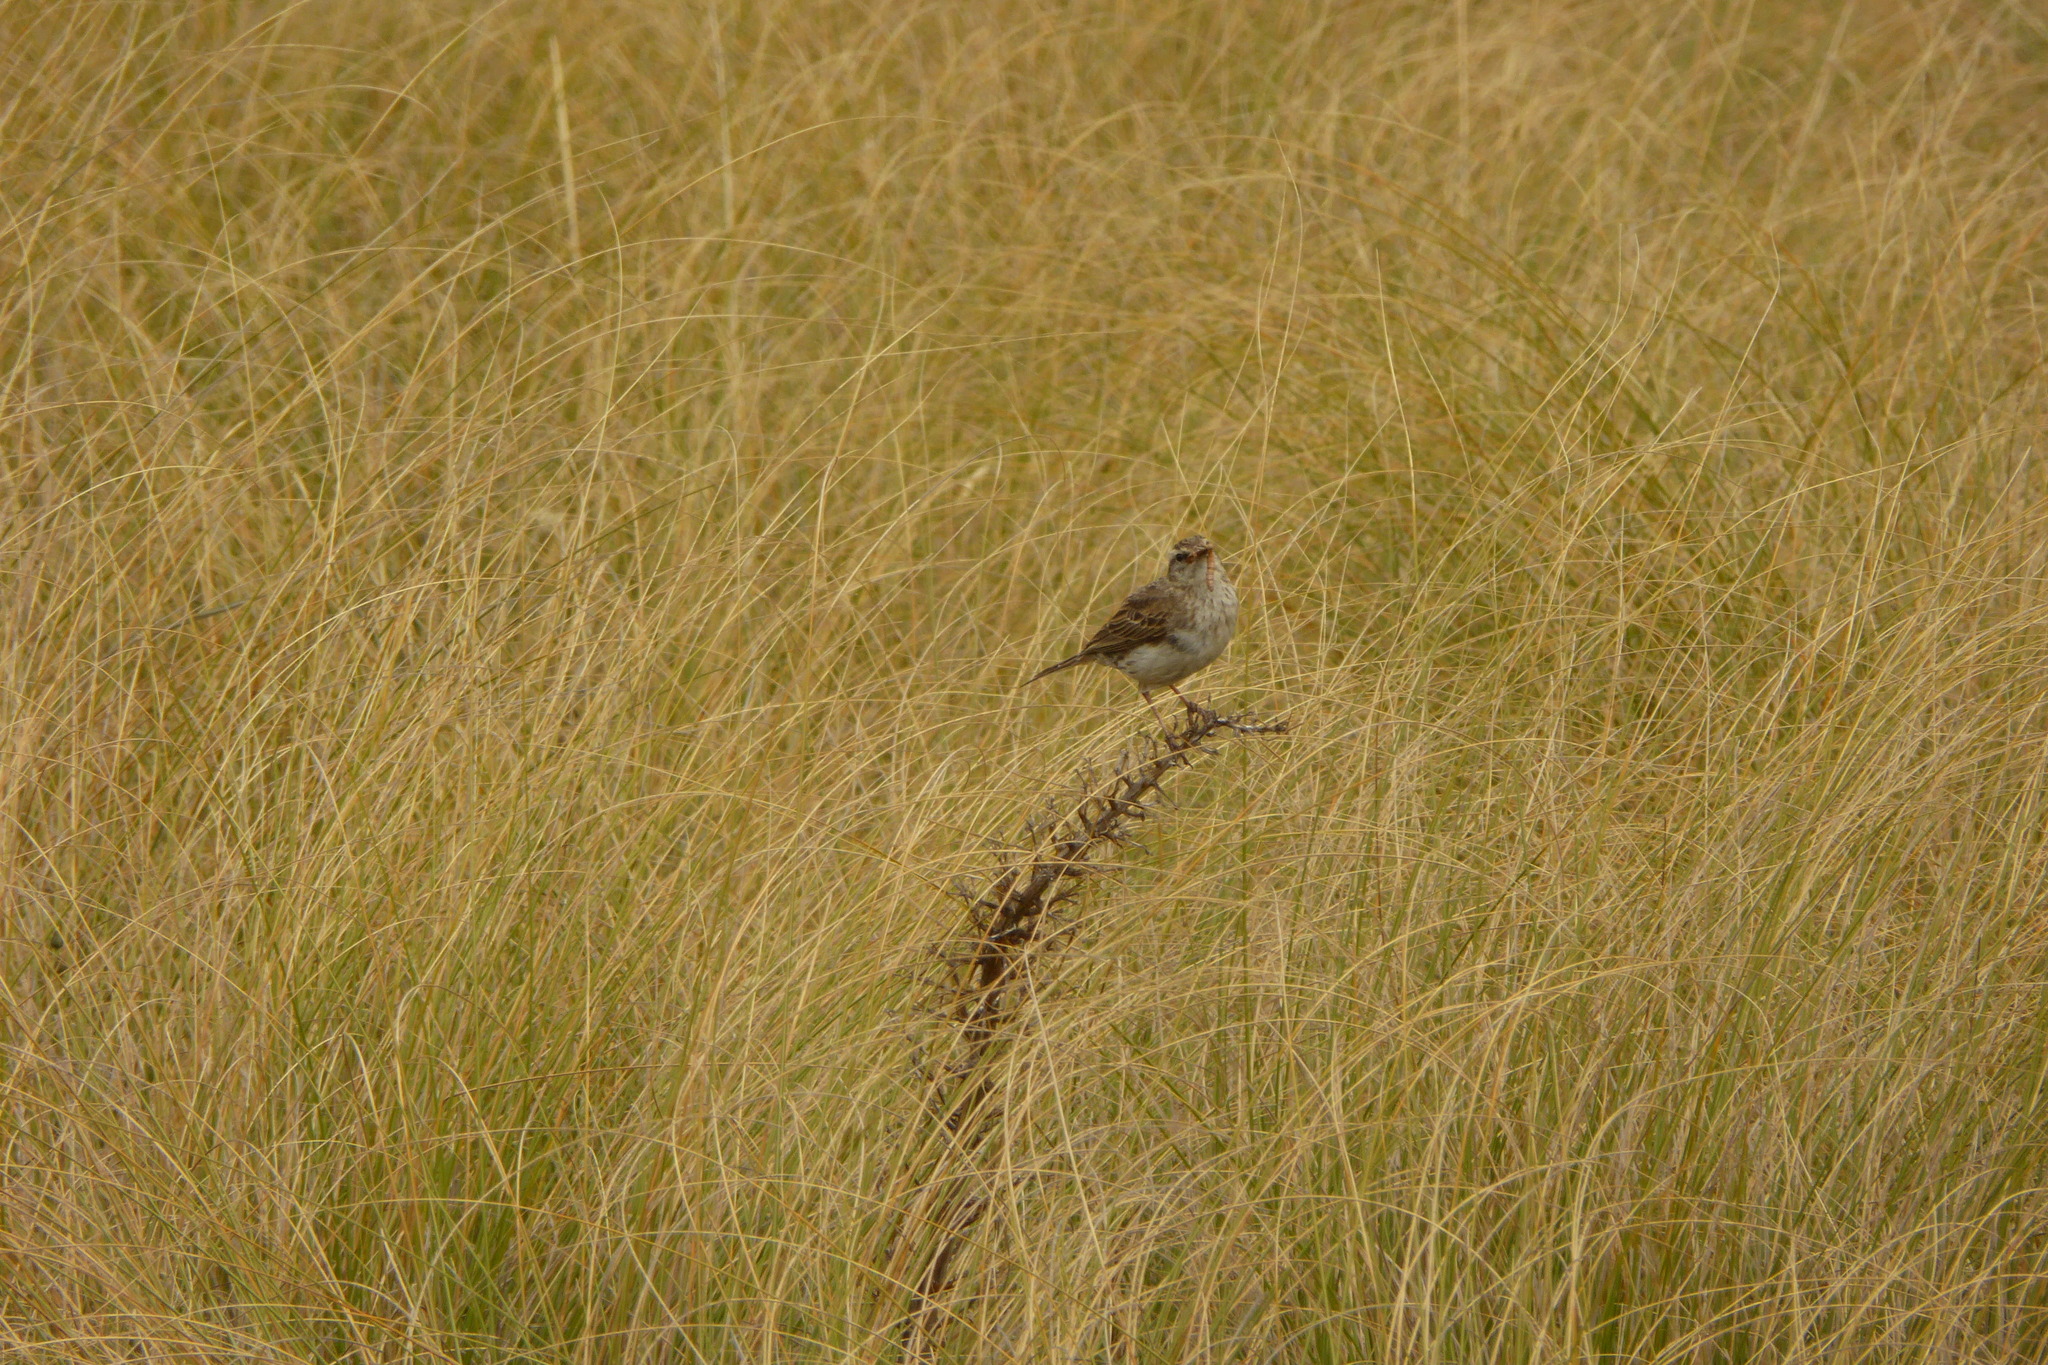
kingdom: Animalia
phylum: Chordata
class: Aves
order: Passeriformes
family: Motacillidae
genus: Anthus
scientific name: Anthus novaeseelandiae
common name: New zealand pipit
